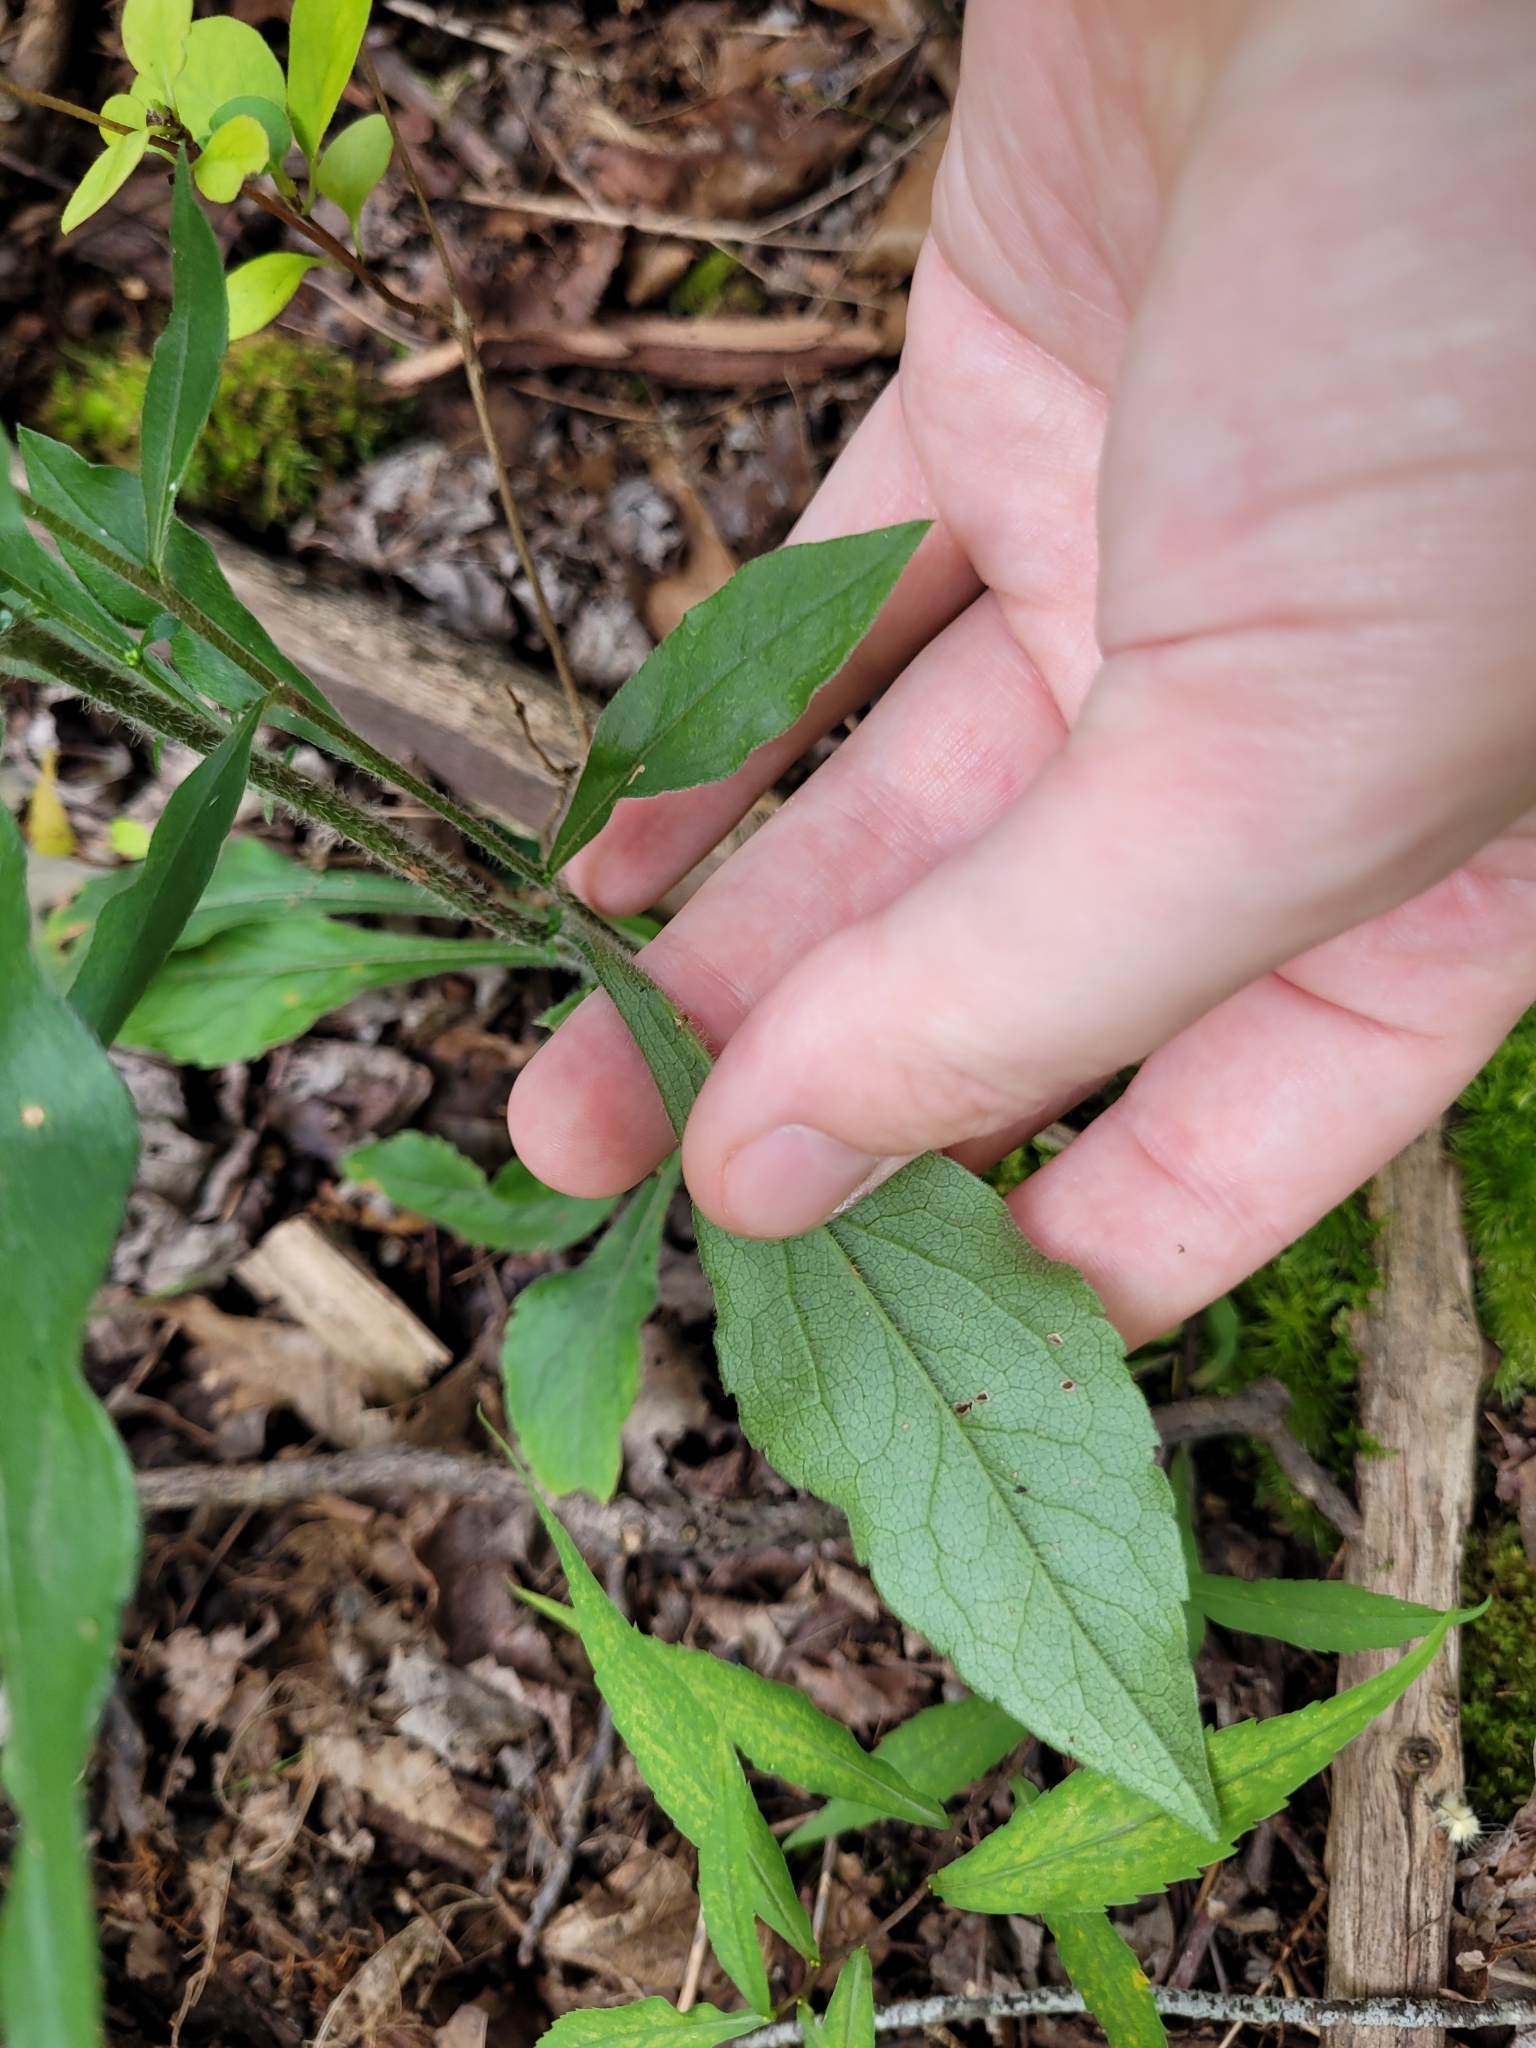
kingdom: Plantae
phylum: Tracheophyta
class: Magnoliopsida
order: Asterales
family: Asteraceae
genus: Solidago
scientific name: Solidago bicolor
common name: Silverrod
